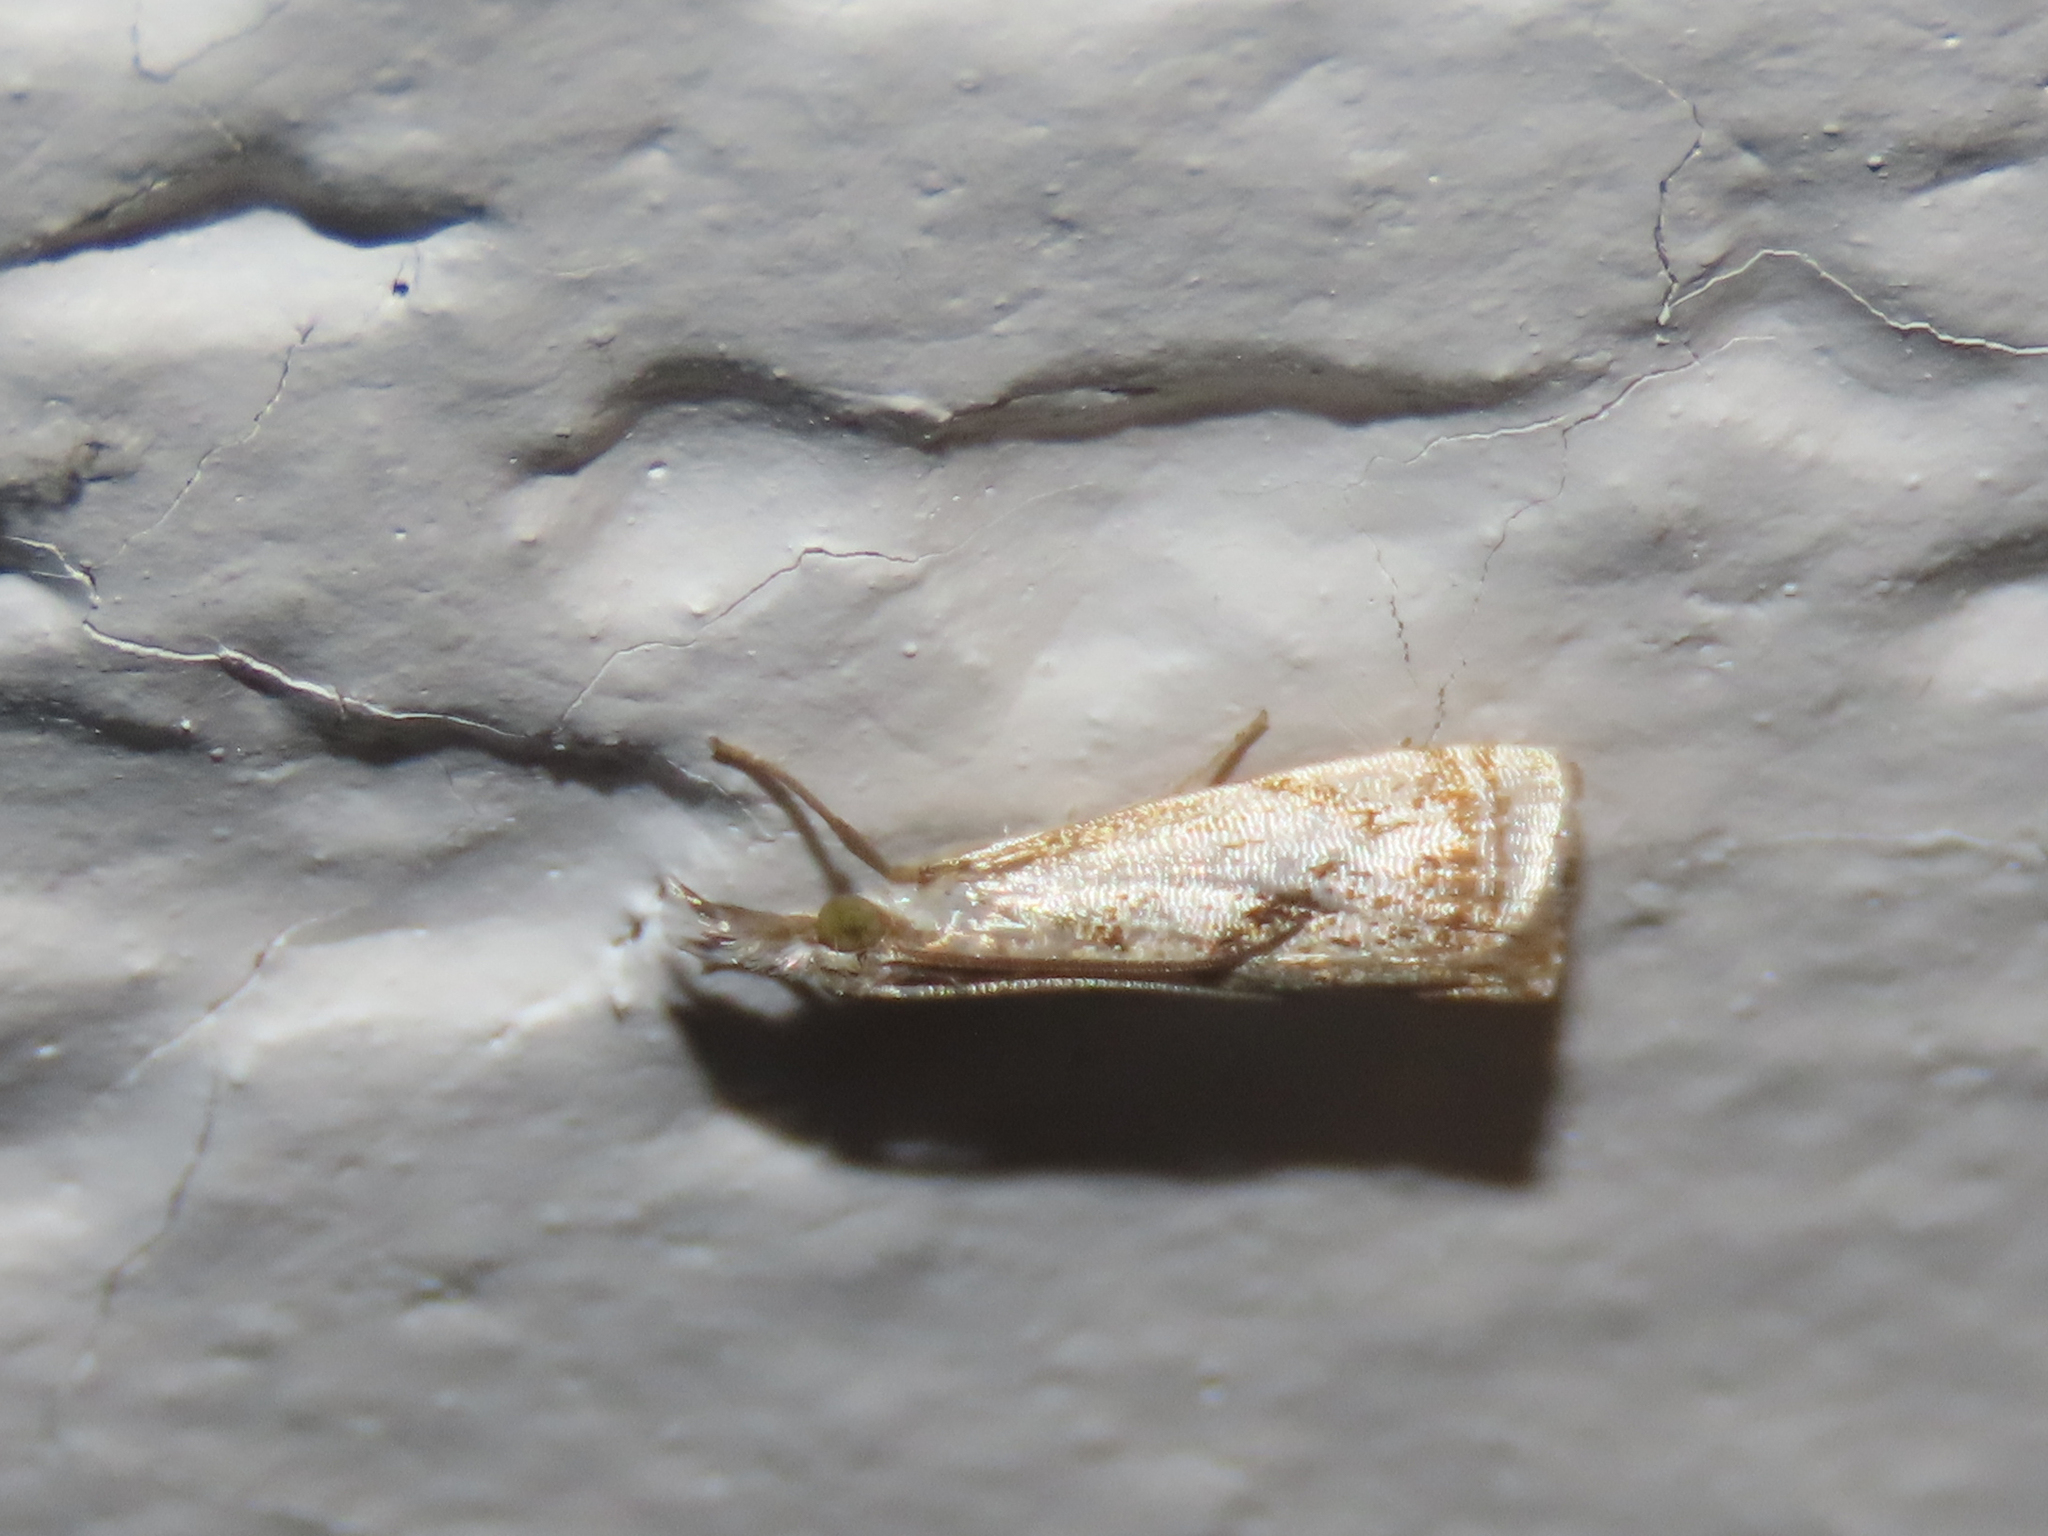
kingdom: Animalia
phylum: Arthropoda
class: Insecta
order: Lepidoptera
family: Crambidae
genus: Microcrambus
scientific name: Microcrambus elegans
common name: Elegant grass-veneer
